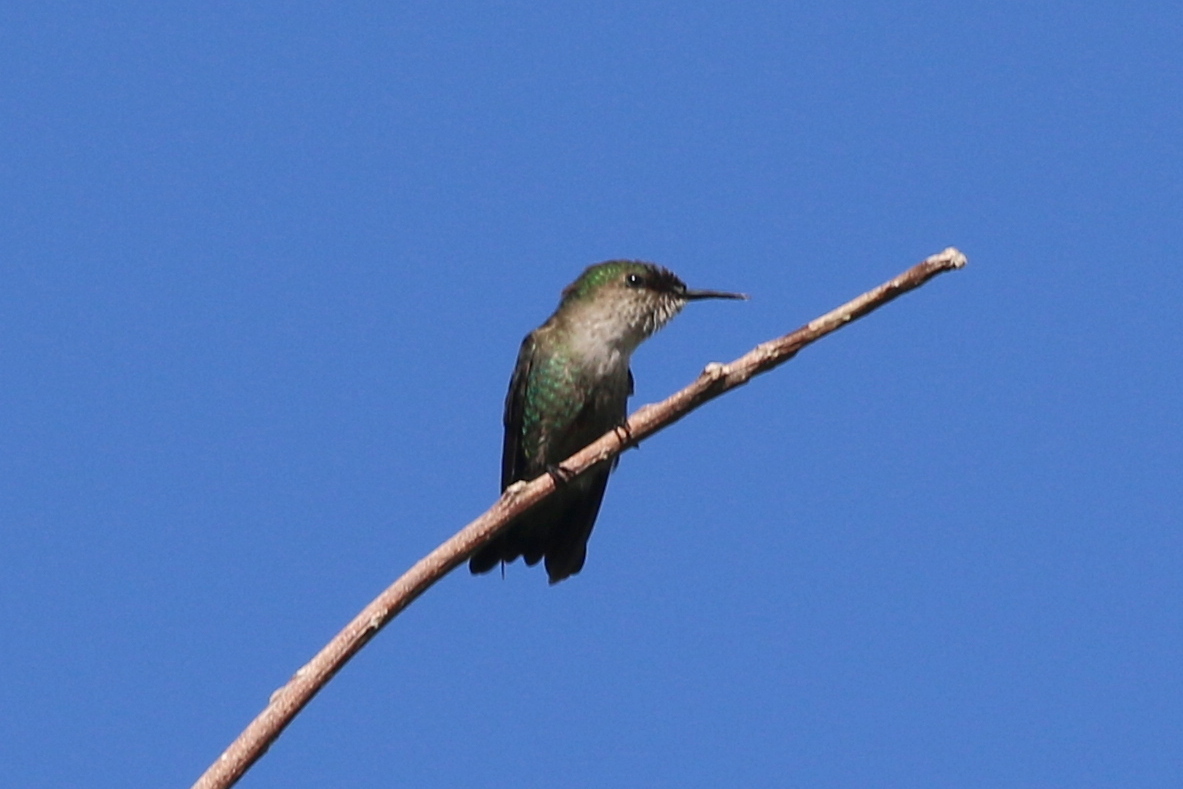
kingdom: Animalia
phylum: Chordata
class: Aves
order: Apodiformes
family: Trochilidae
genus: Mellisuga
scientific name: Mellisuga minima
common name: Vervain hummingbird
